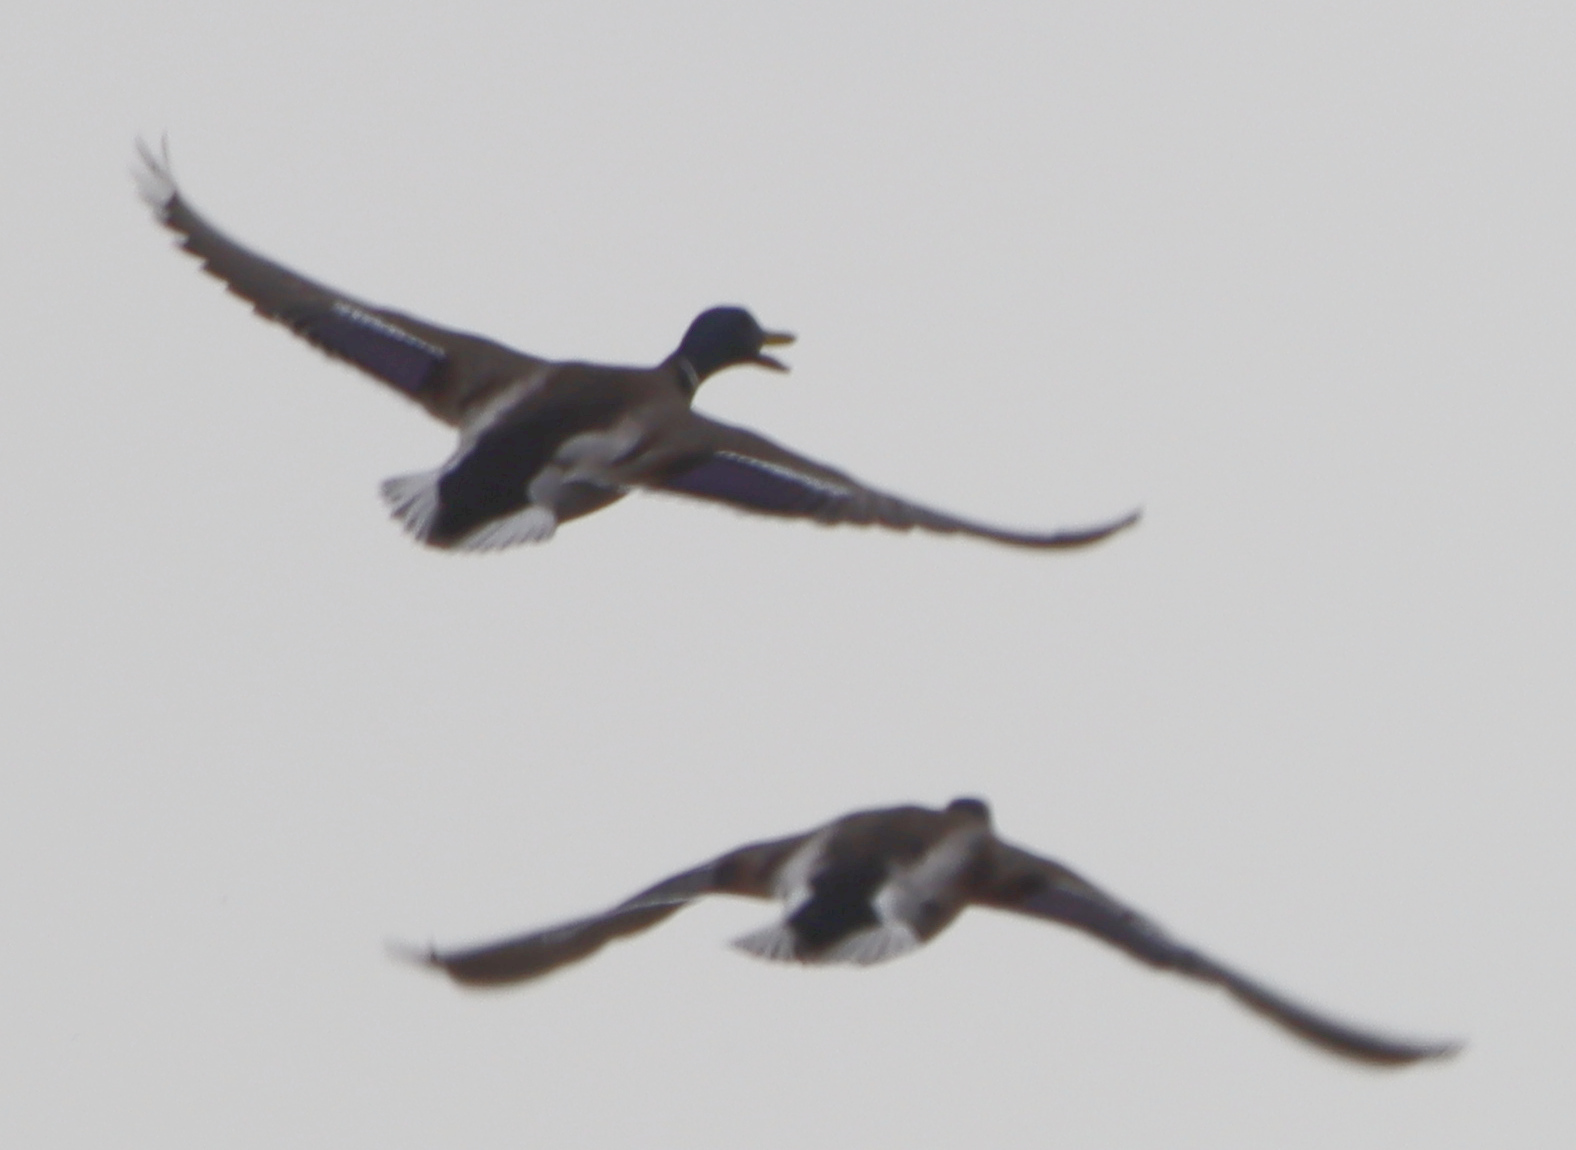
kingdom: Animalia
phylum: Chordata
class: Aves
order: Anseriformes
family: Anatidae
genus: Anas
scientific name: Anas platyrhynchos
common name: Mallard
